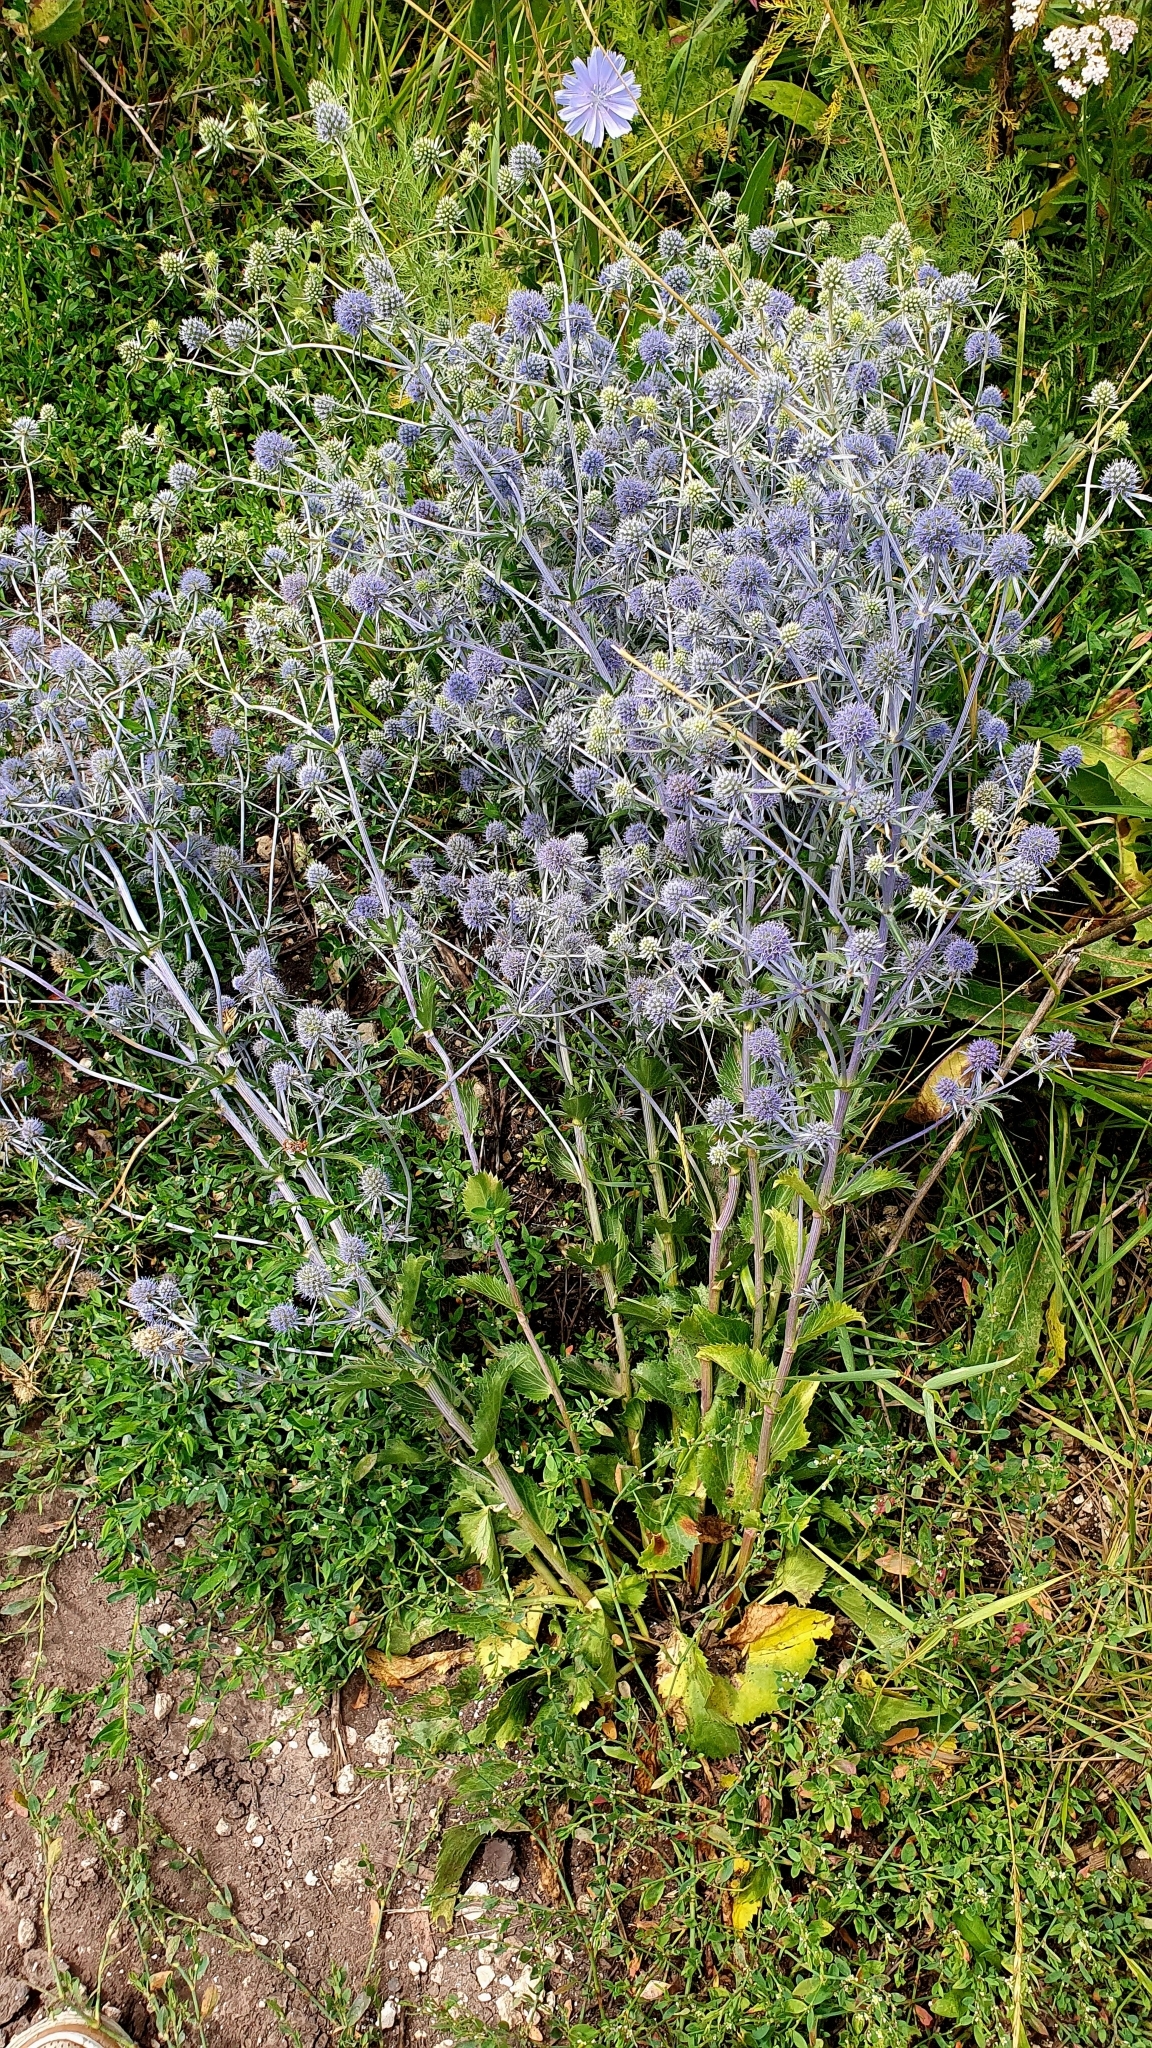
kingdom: Plantae
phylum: Tracheophyta
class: Magnoliopsida
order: Apiales
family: Apiaceae
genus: Eryngium
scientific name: Eryngium planum
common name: Blue eryngo
